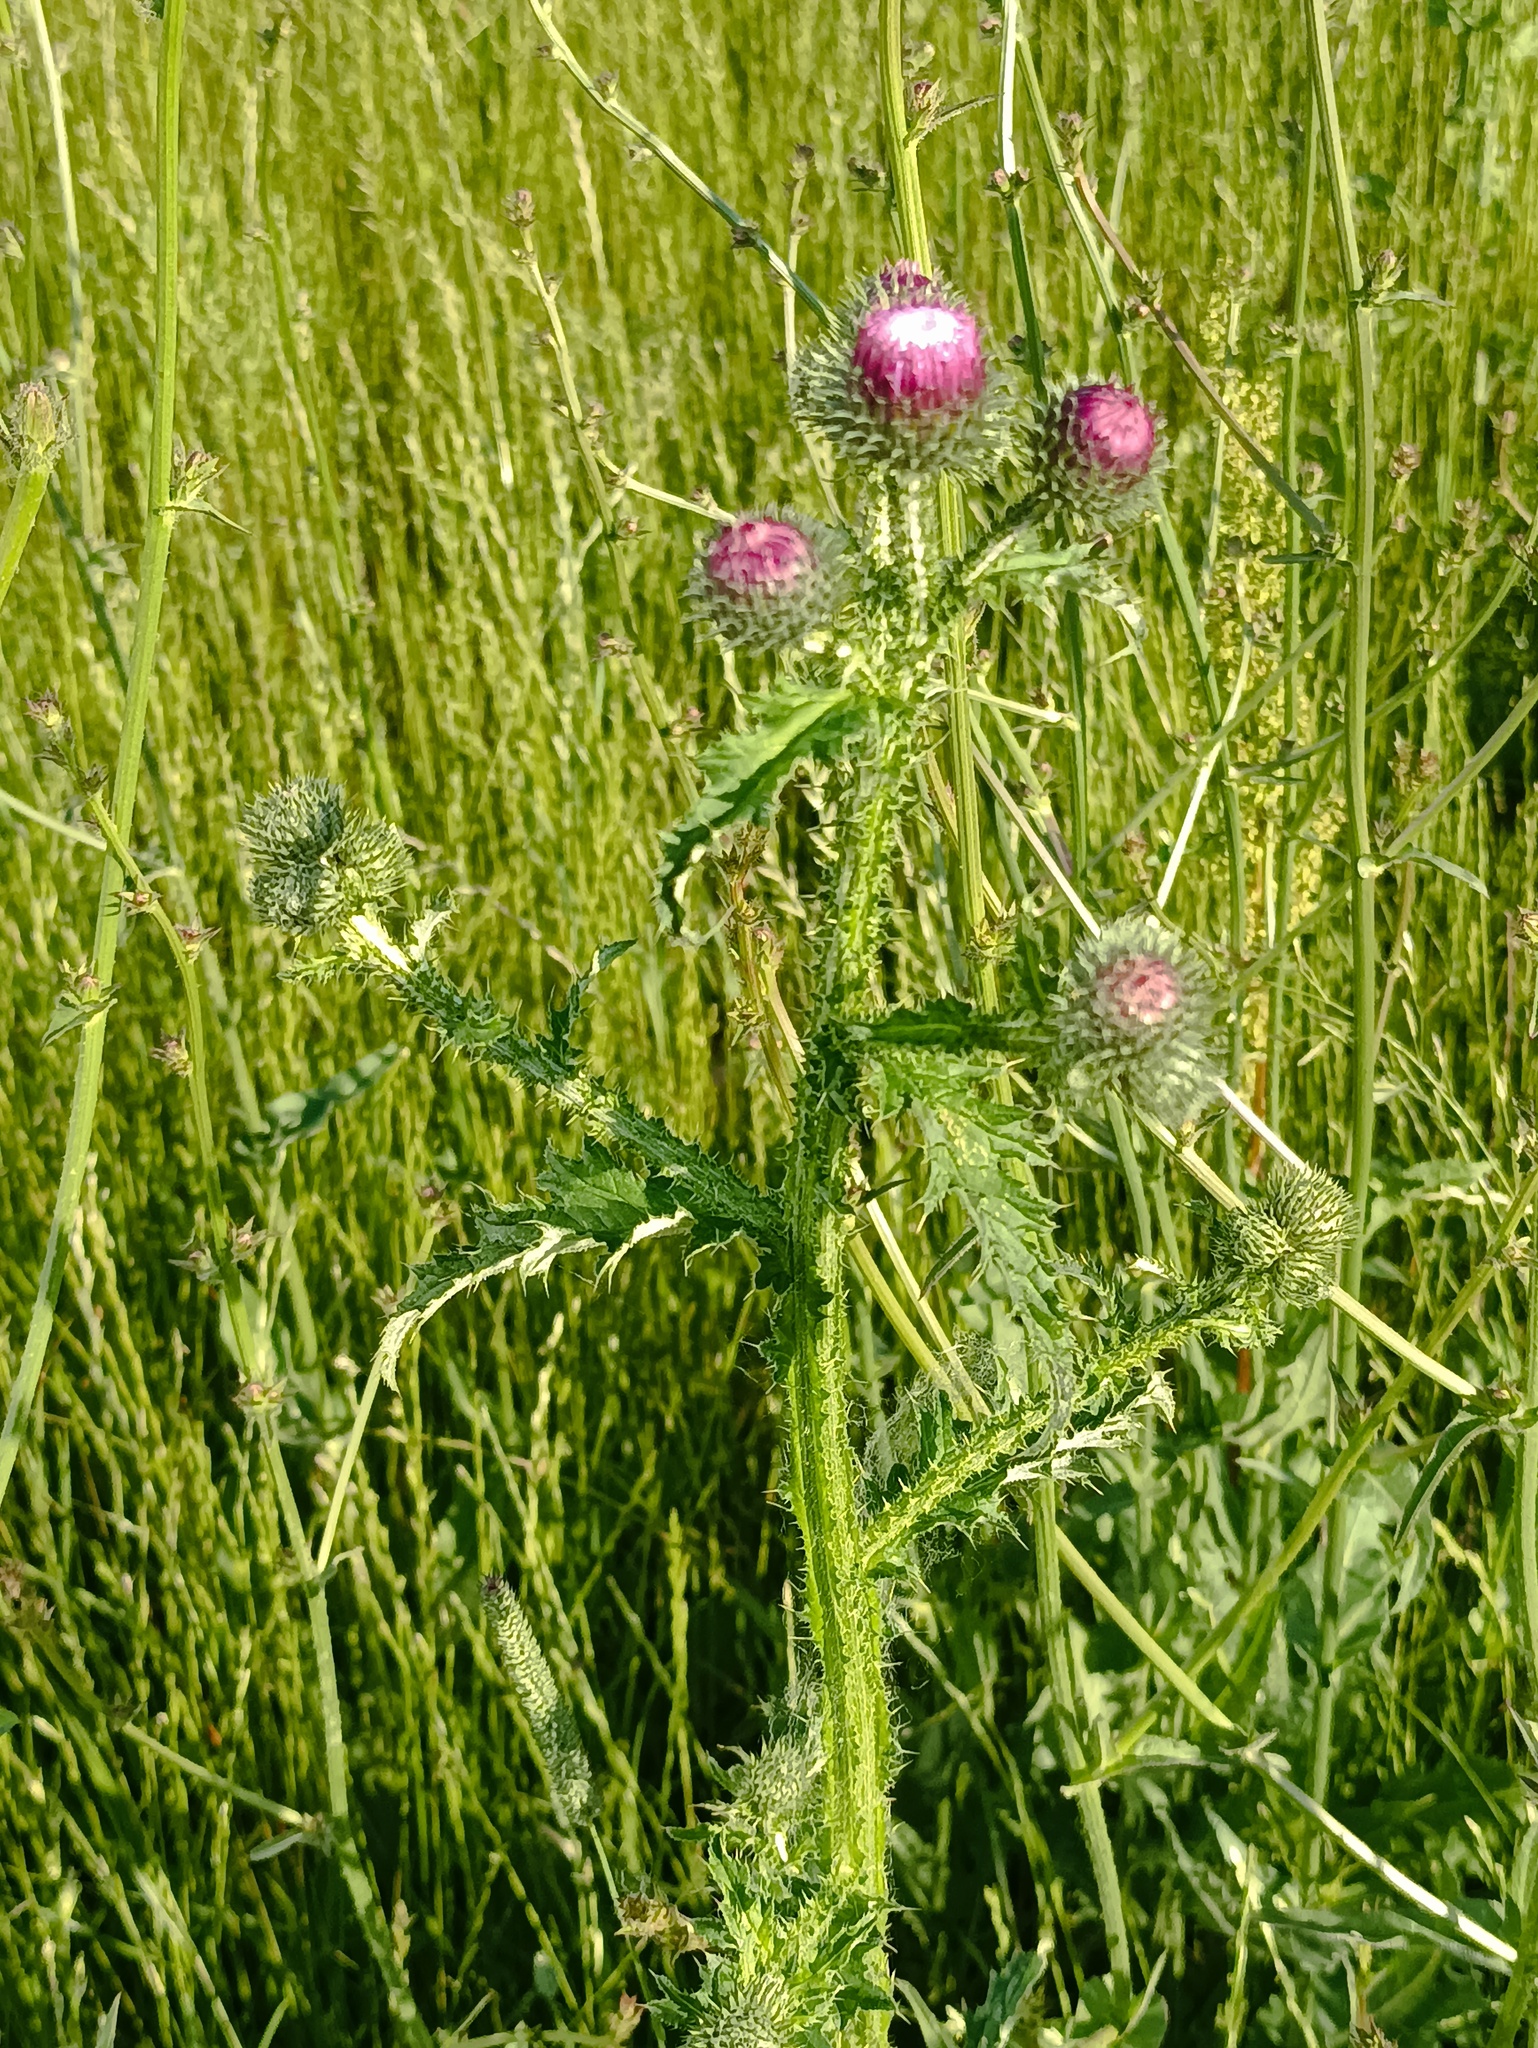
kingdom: Plantae
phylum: Tracheophyta
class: Magnoliopsida
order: Asterales
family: Asteraceae
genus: Carduus
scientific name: Carduus crispus
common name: Welted thistle
